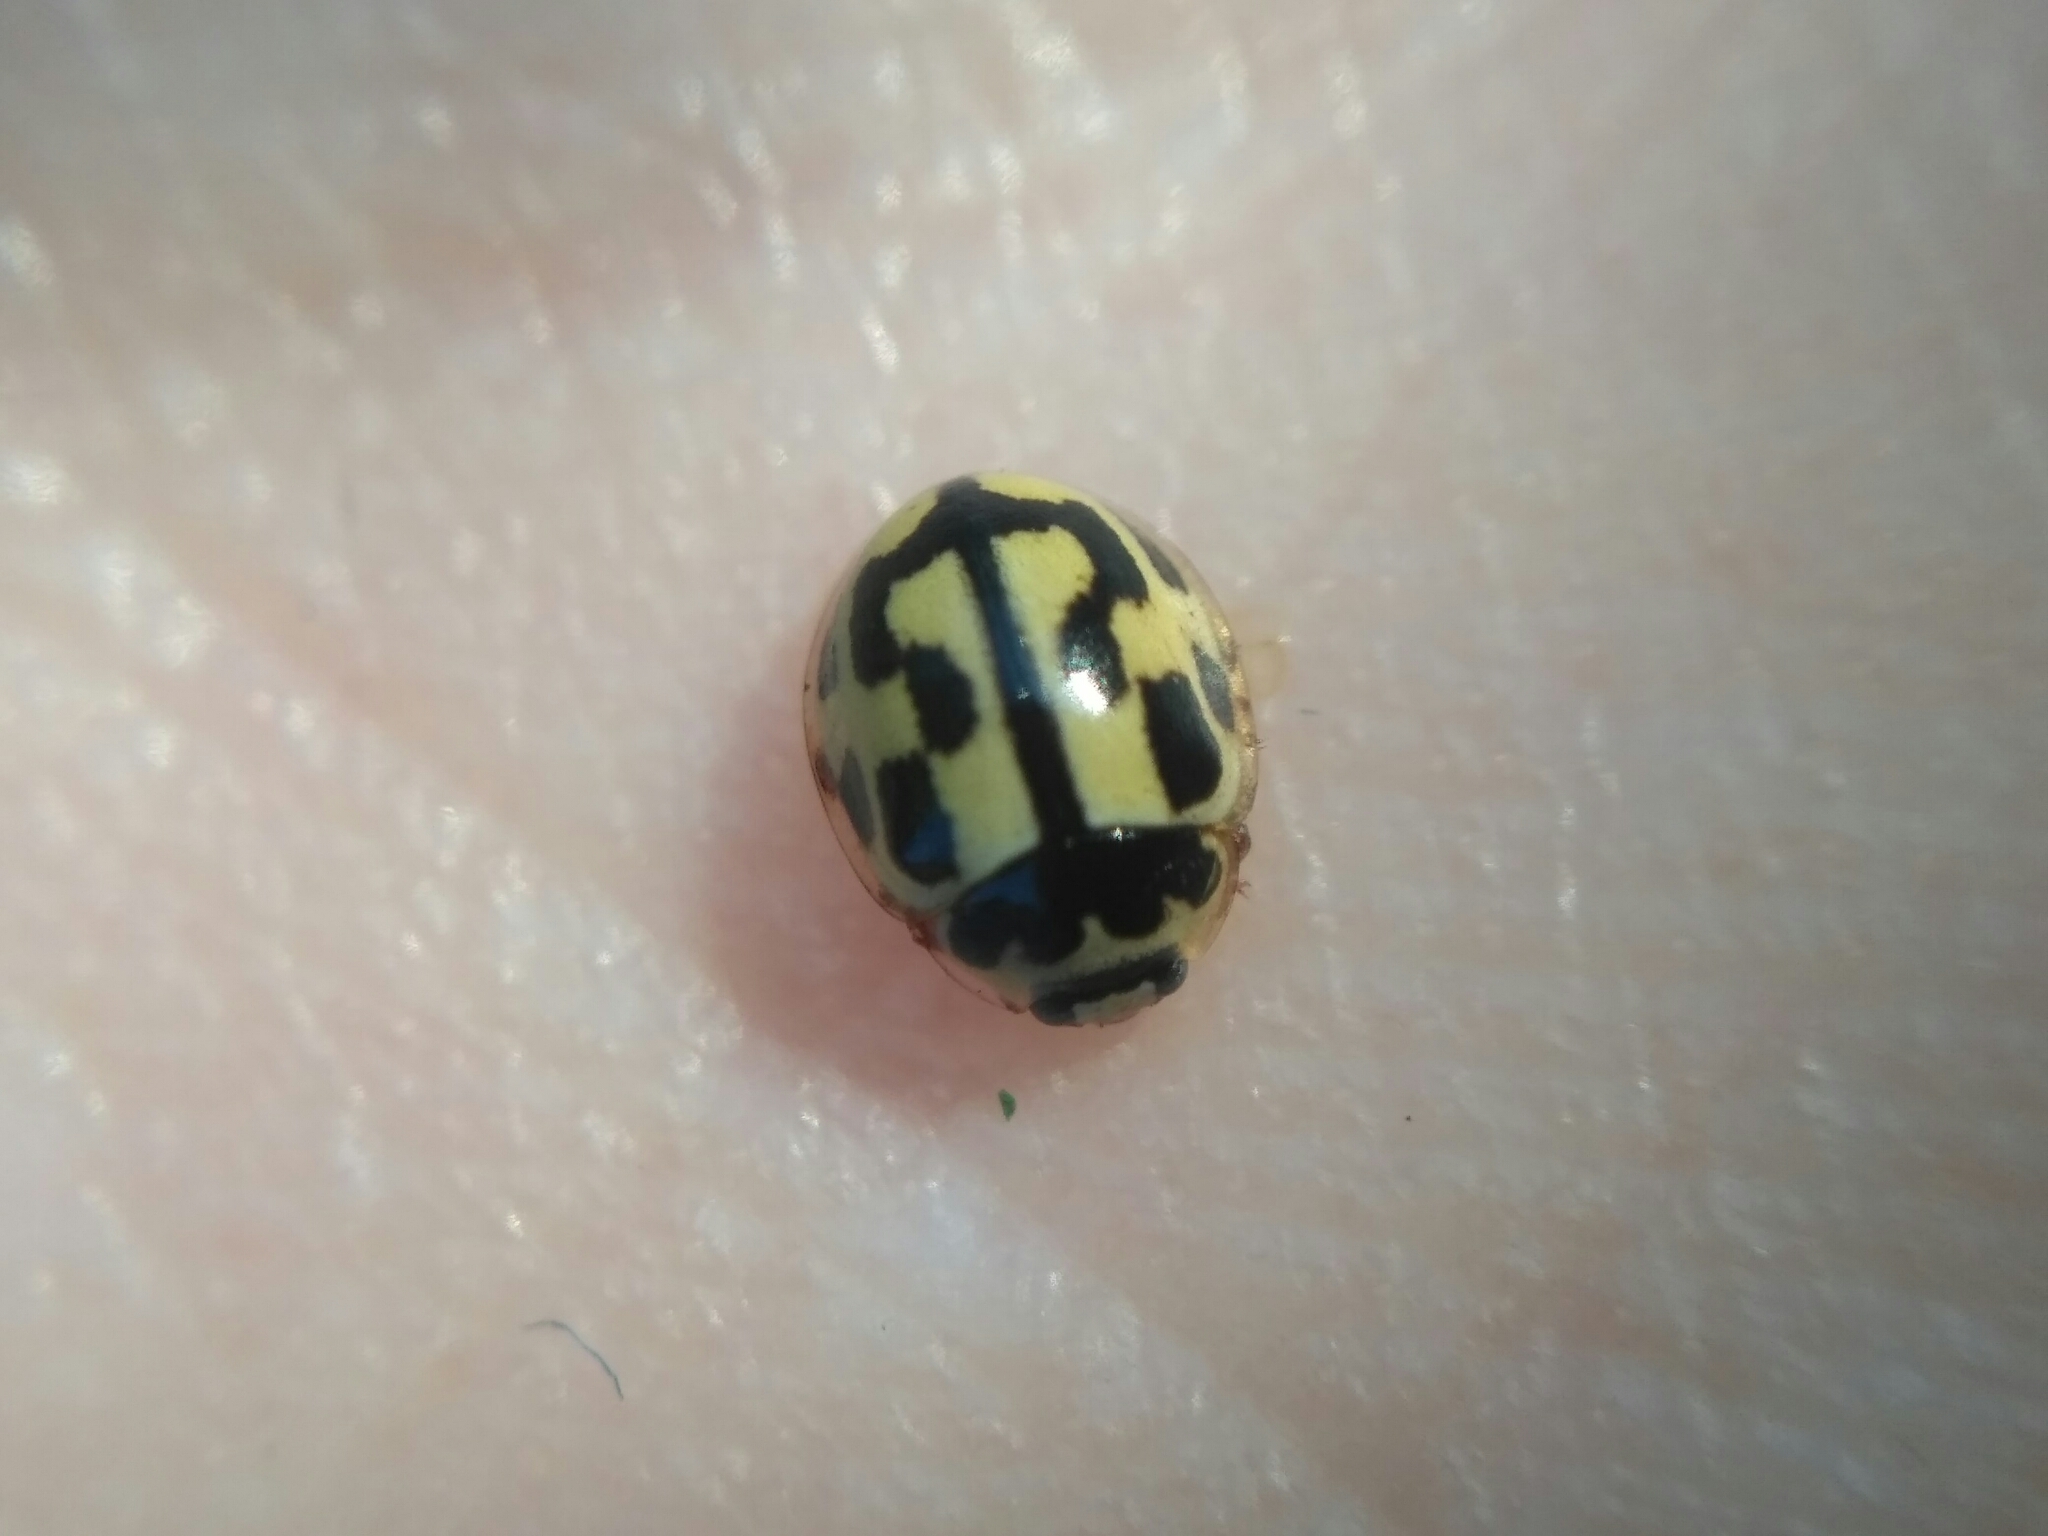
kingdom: Animalia
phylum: Arthropoda
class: Insecta
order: Coleoptera
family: Coccinellidae
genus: Propylaea
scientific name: Propylaea quatuordecimpunctata
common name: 14-spotted ladybird beetle
